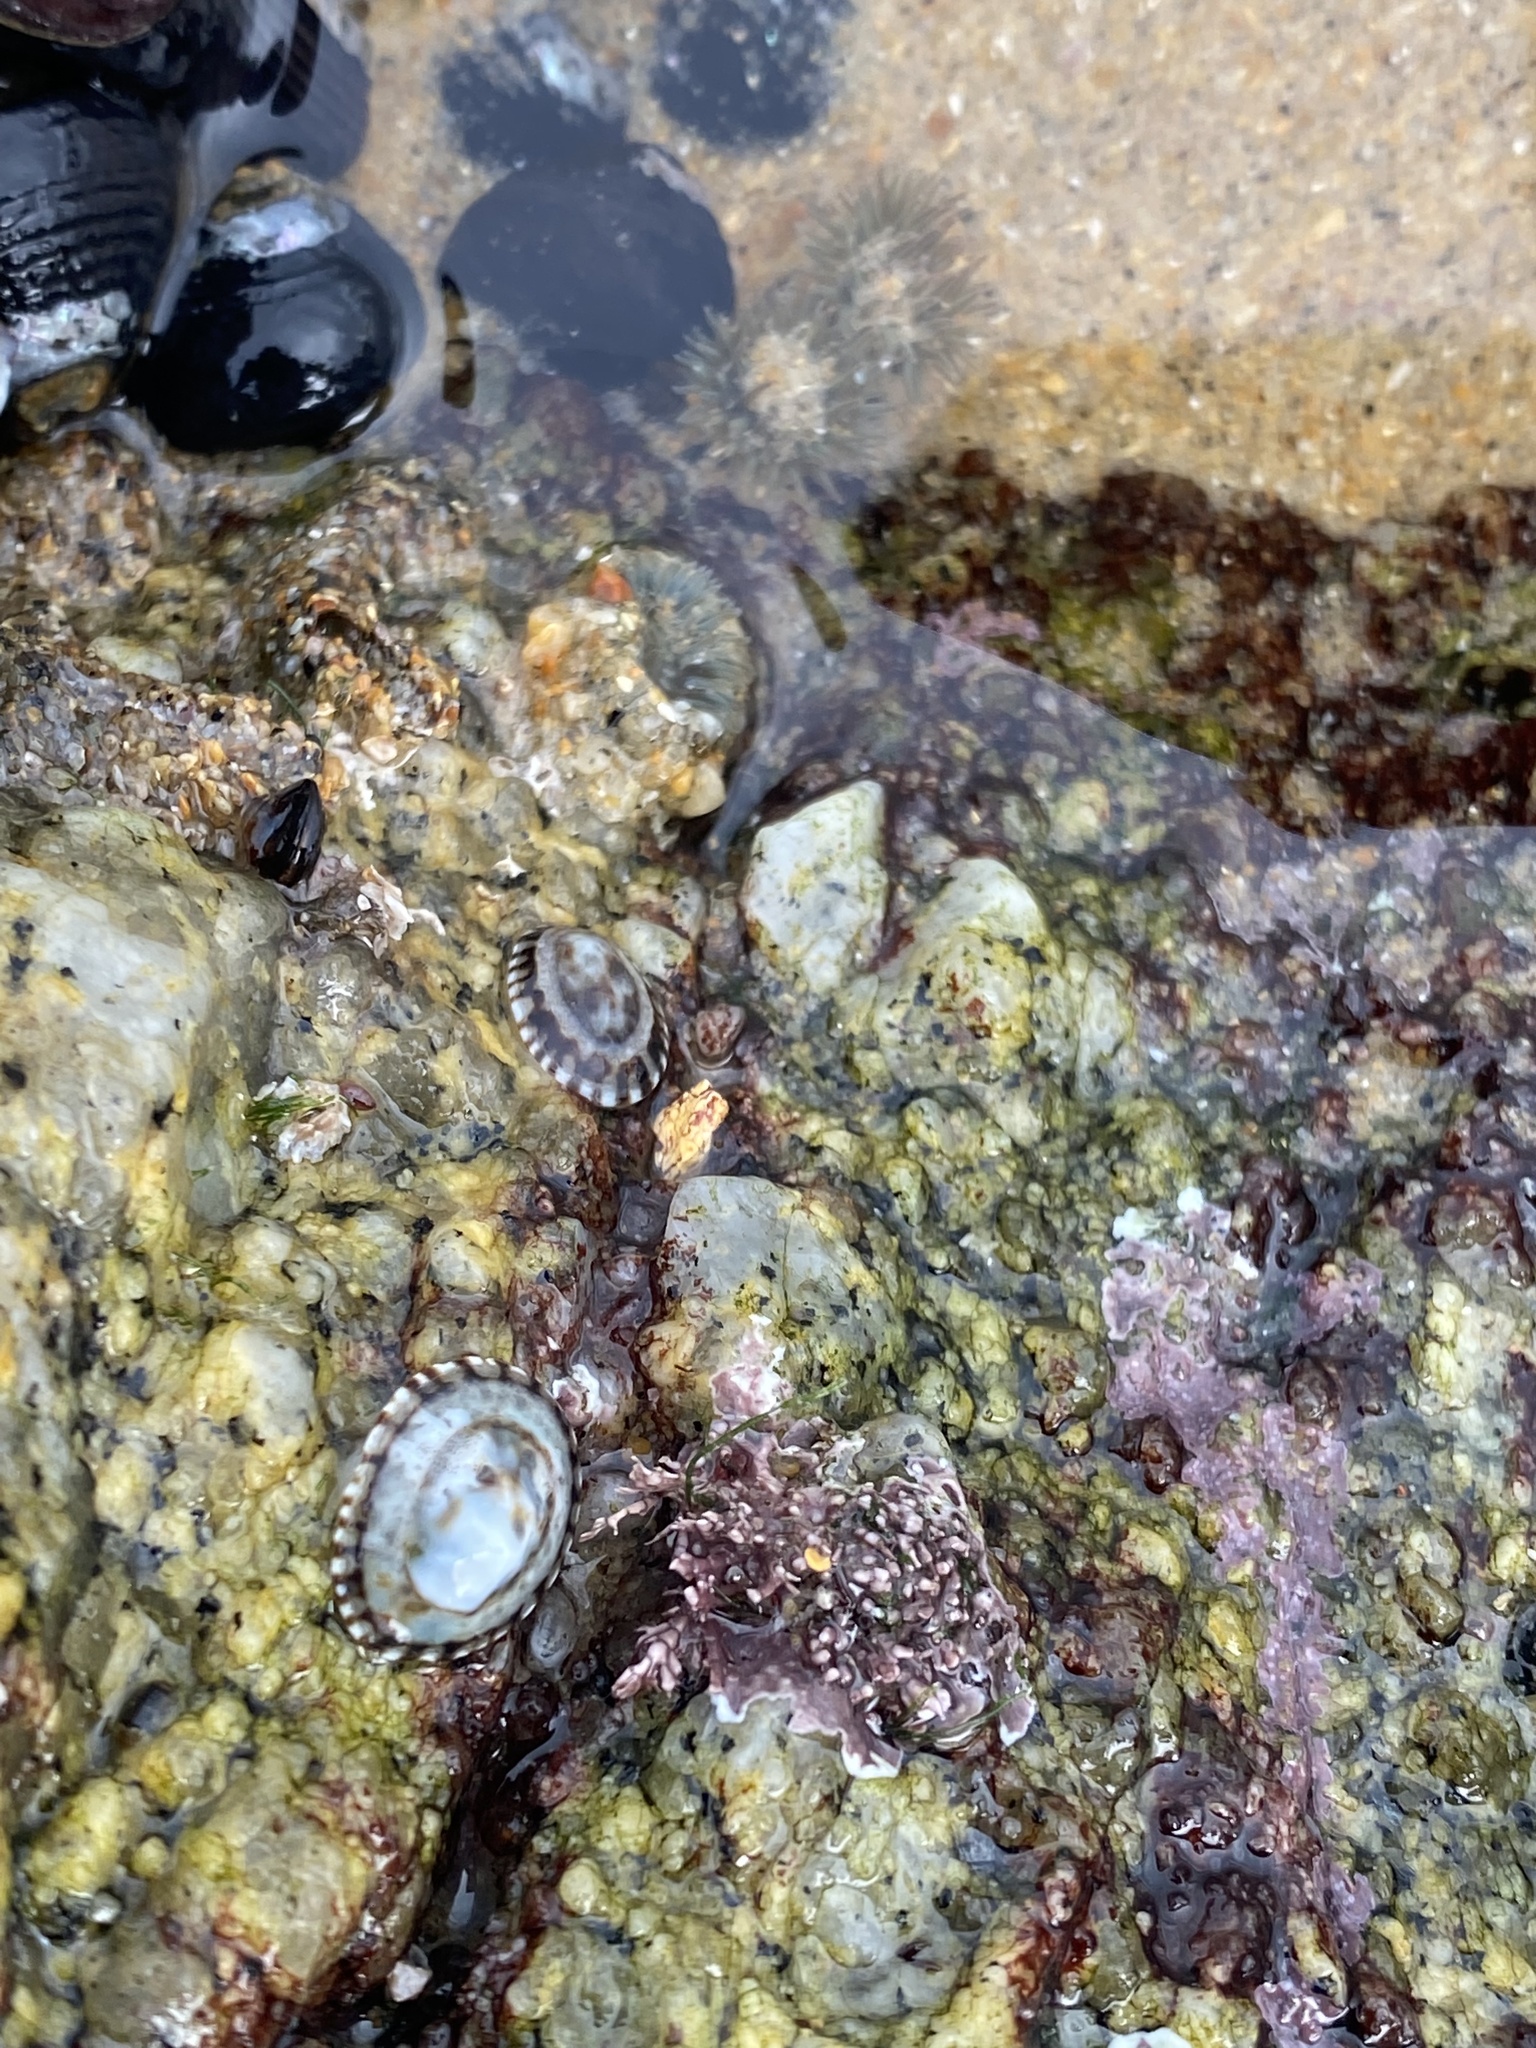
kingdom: Animalia
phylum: Mollusca
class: Gastropoda
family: Lottiidae
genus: Lottia
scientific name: Lottia pelta
